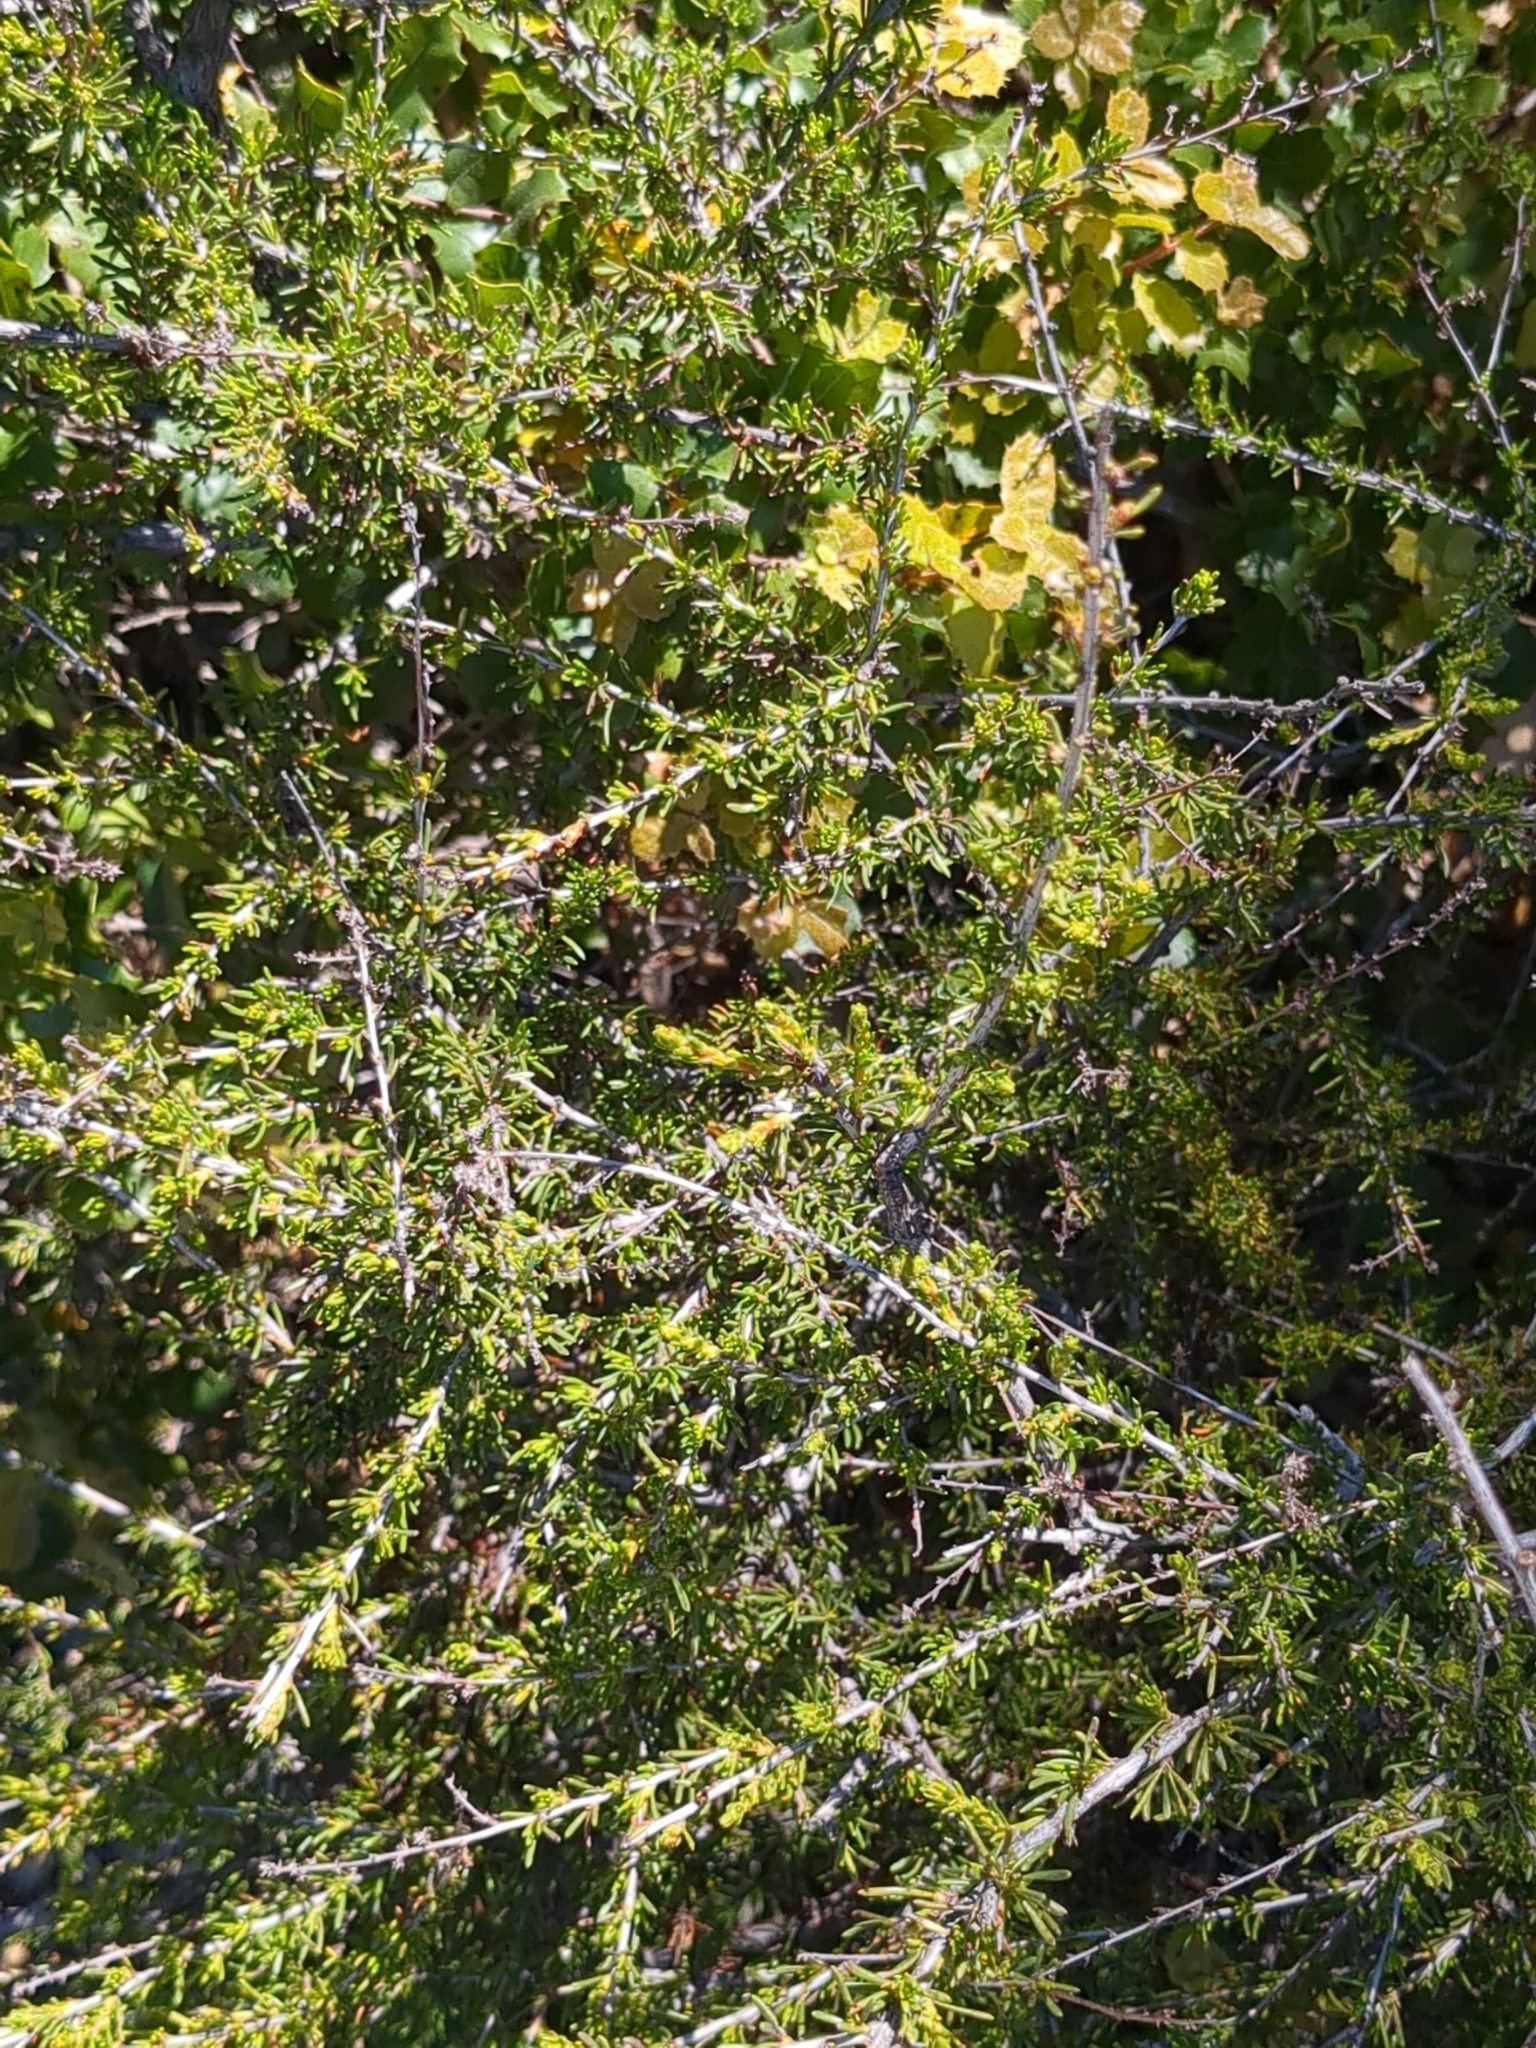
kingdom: Plantae
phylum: Tracheophyta
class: Magnoliopsida
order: Rosales
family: Rosaceae
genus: Adenostoma
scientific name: Adenostoma fasciculatum
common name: Chamise
